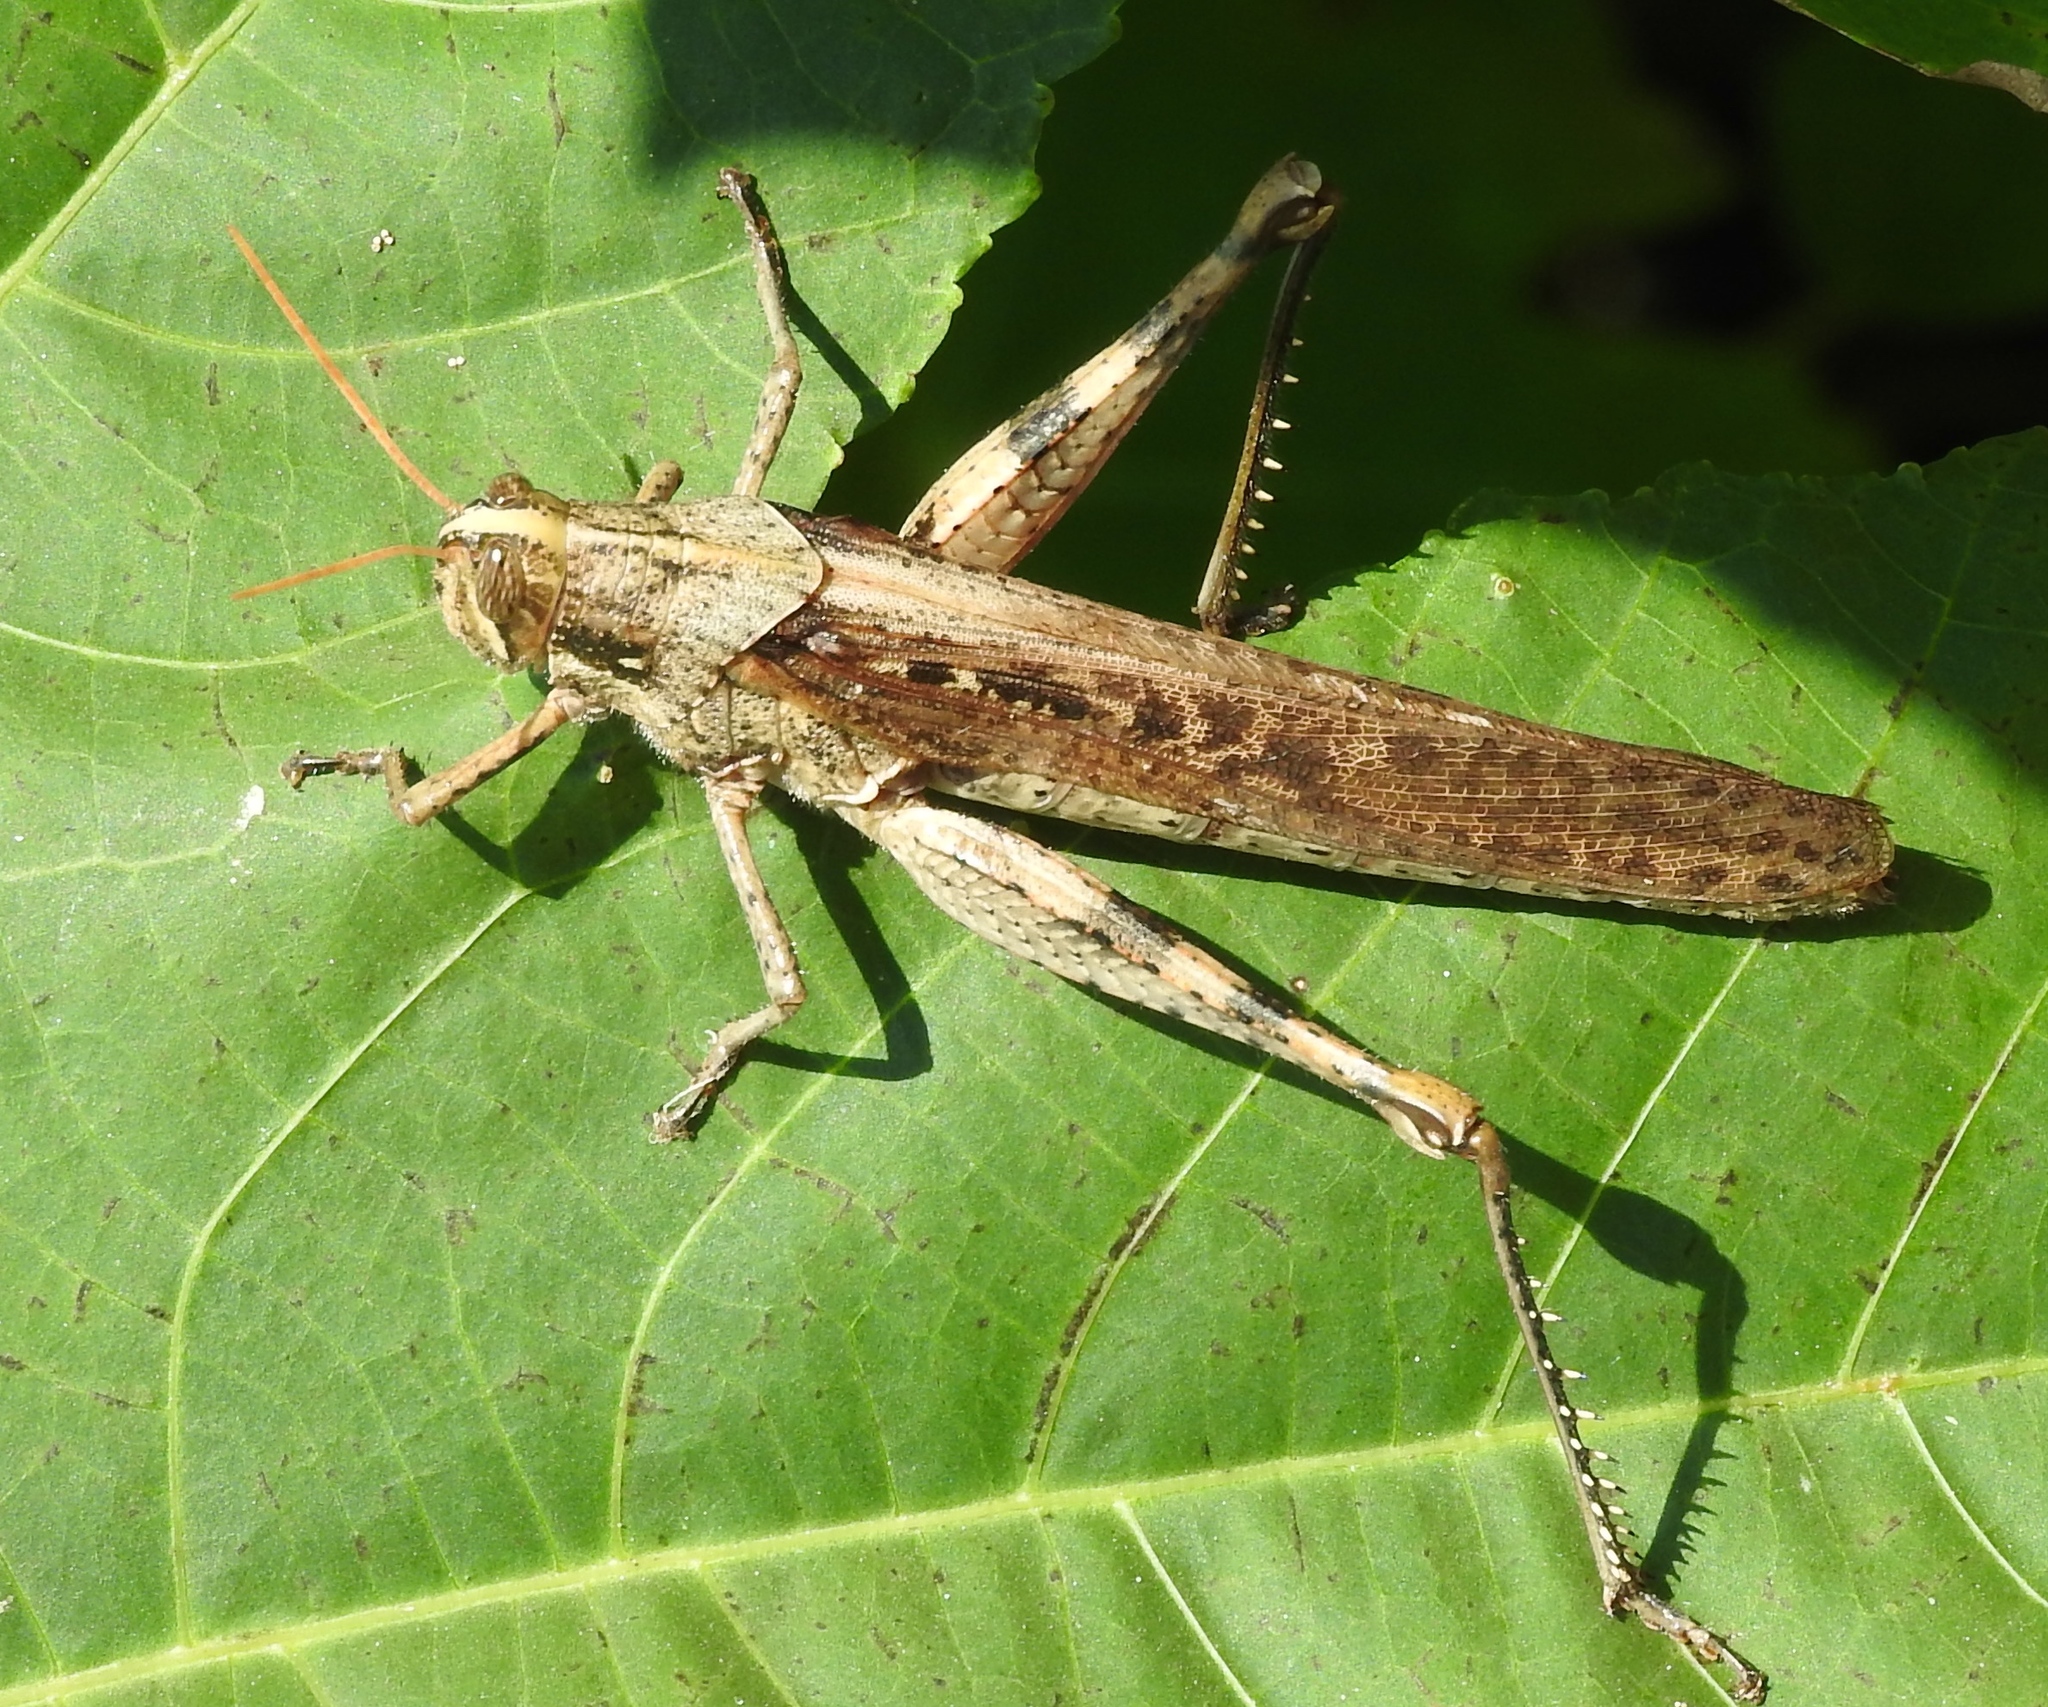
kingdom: Animalia
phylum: Arthropoda
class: Insecta
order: Orthoptera
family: Acrididae
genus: Schistocerca
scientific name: Schistocerca nitens
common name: Vagrant grasshopper
